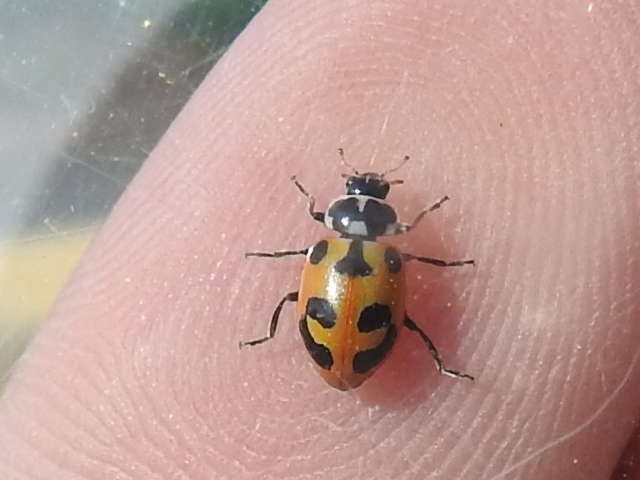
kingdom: Animalia
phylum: Arthropoda
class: Insecta
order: Coleoptera
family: Coccinellidae
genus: Hippodamia
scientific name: Hippodamia parenthesis
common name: Parenthesis lady beetle
